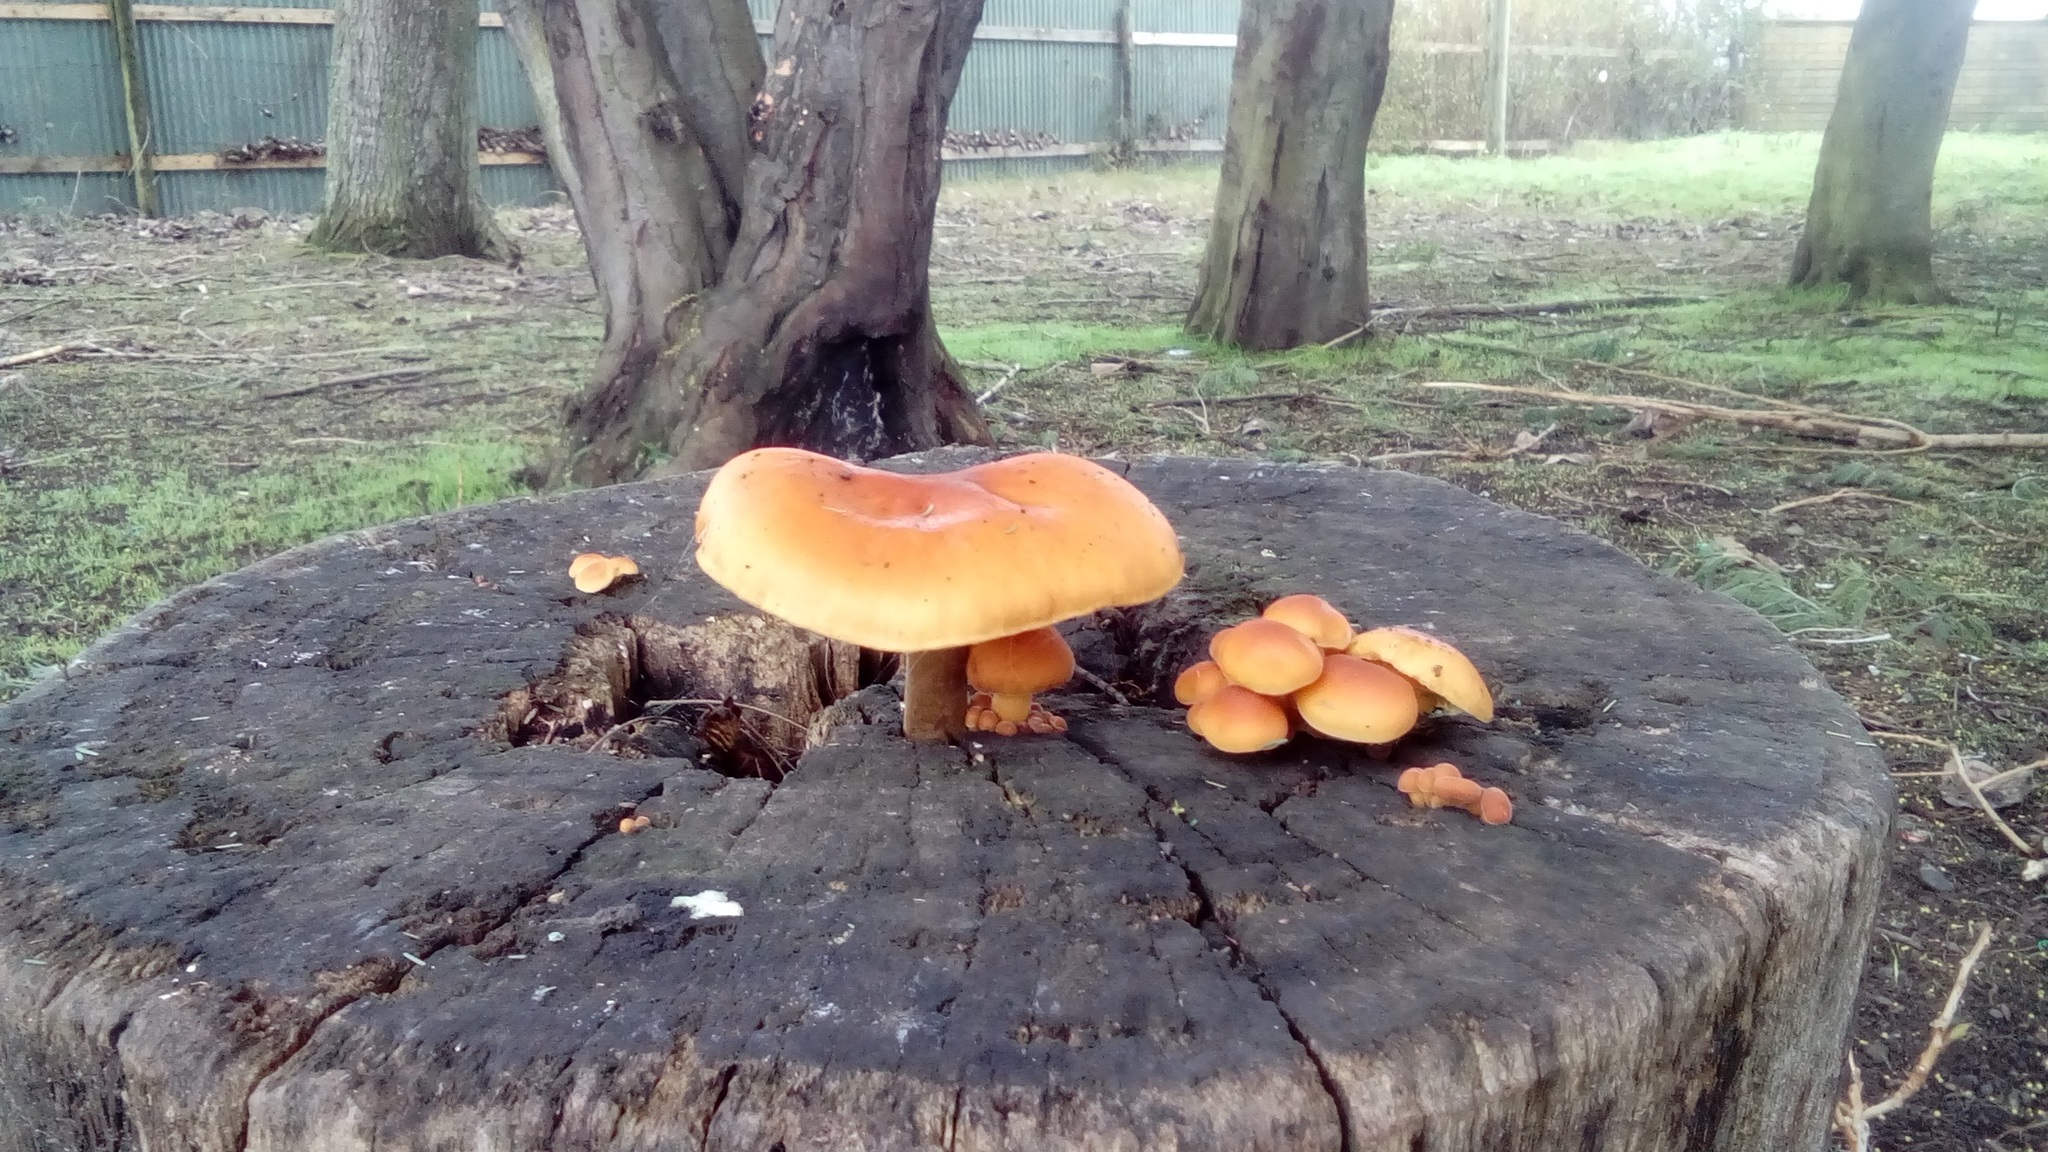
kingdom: Fungi
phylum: Basidiomycota
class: Agaricomycetes
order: Agaricales
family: Physalacriaceae
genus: Flammulina
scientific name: Flammulina velutipes
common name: Velvet shank
